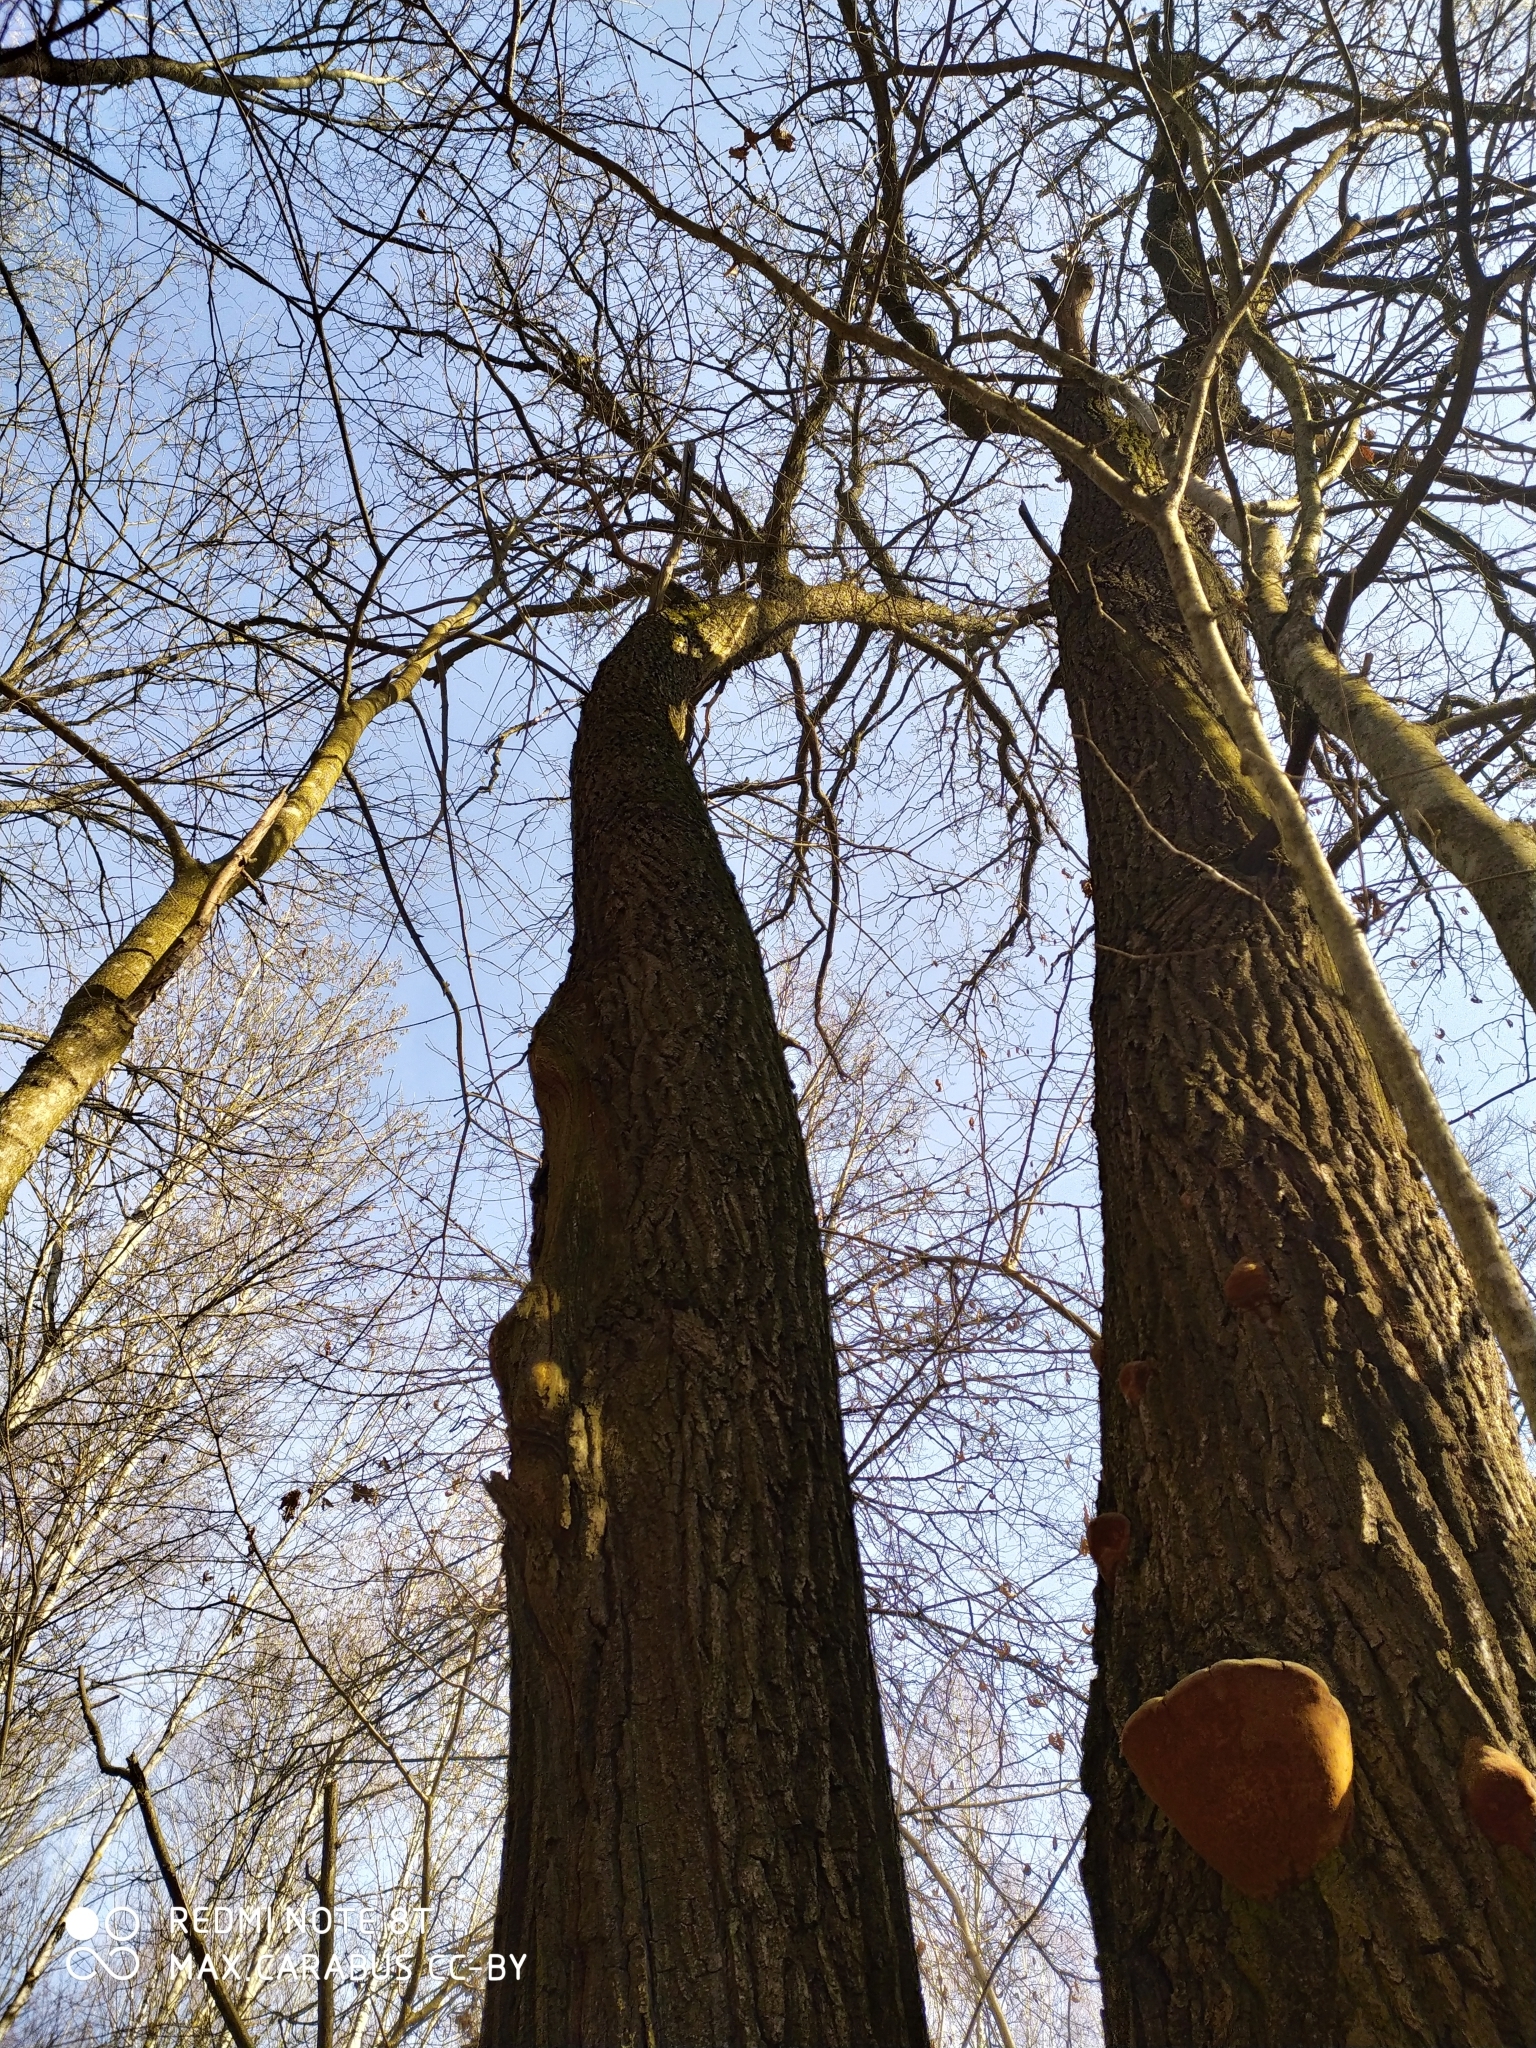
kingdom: Plantae
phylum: Tracheophyta
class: Magnoliopsida
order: Fagales
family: Fagaceae
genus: Quercus
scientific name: Quercus robur
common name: Pedunculate oak
